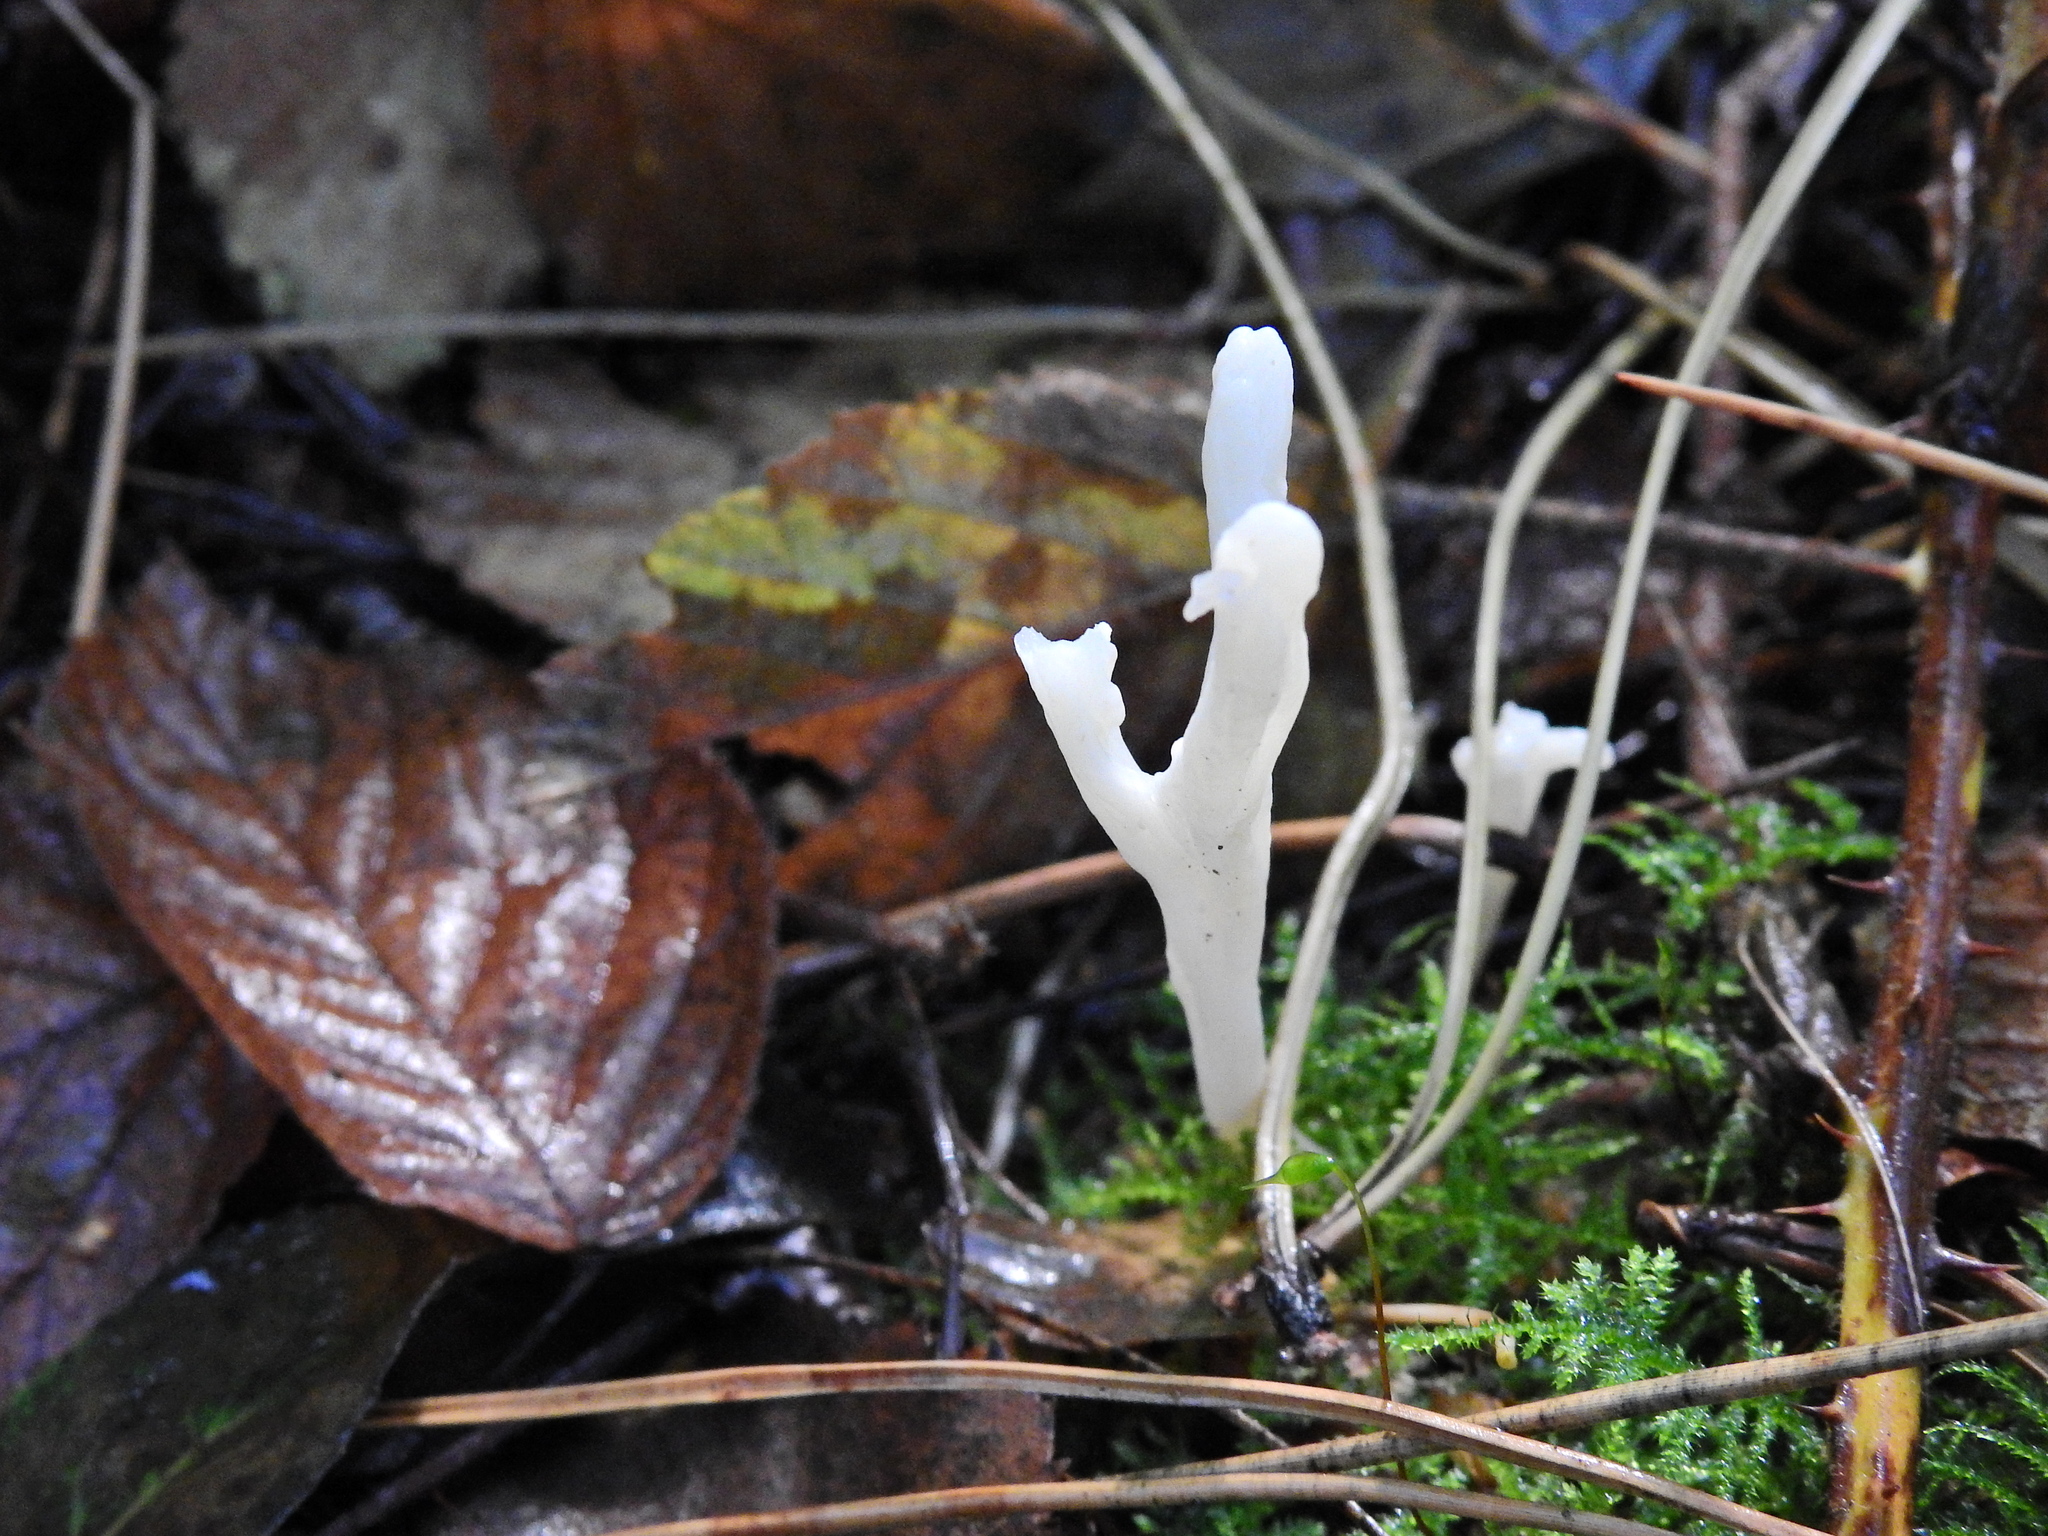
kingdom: Fungi
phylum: Basidiomycota
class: Agaricomycetes
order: Cantharellales
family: Hydnaceae
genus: Clavulina
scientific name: Clavulina rugosa
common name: Wrinkled club
